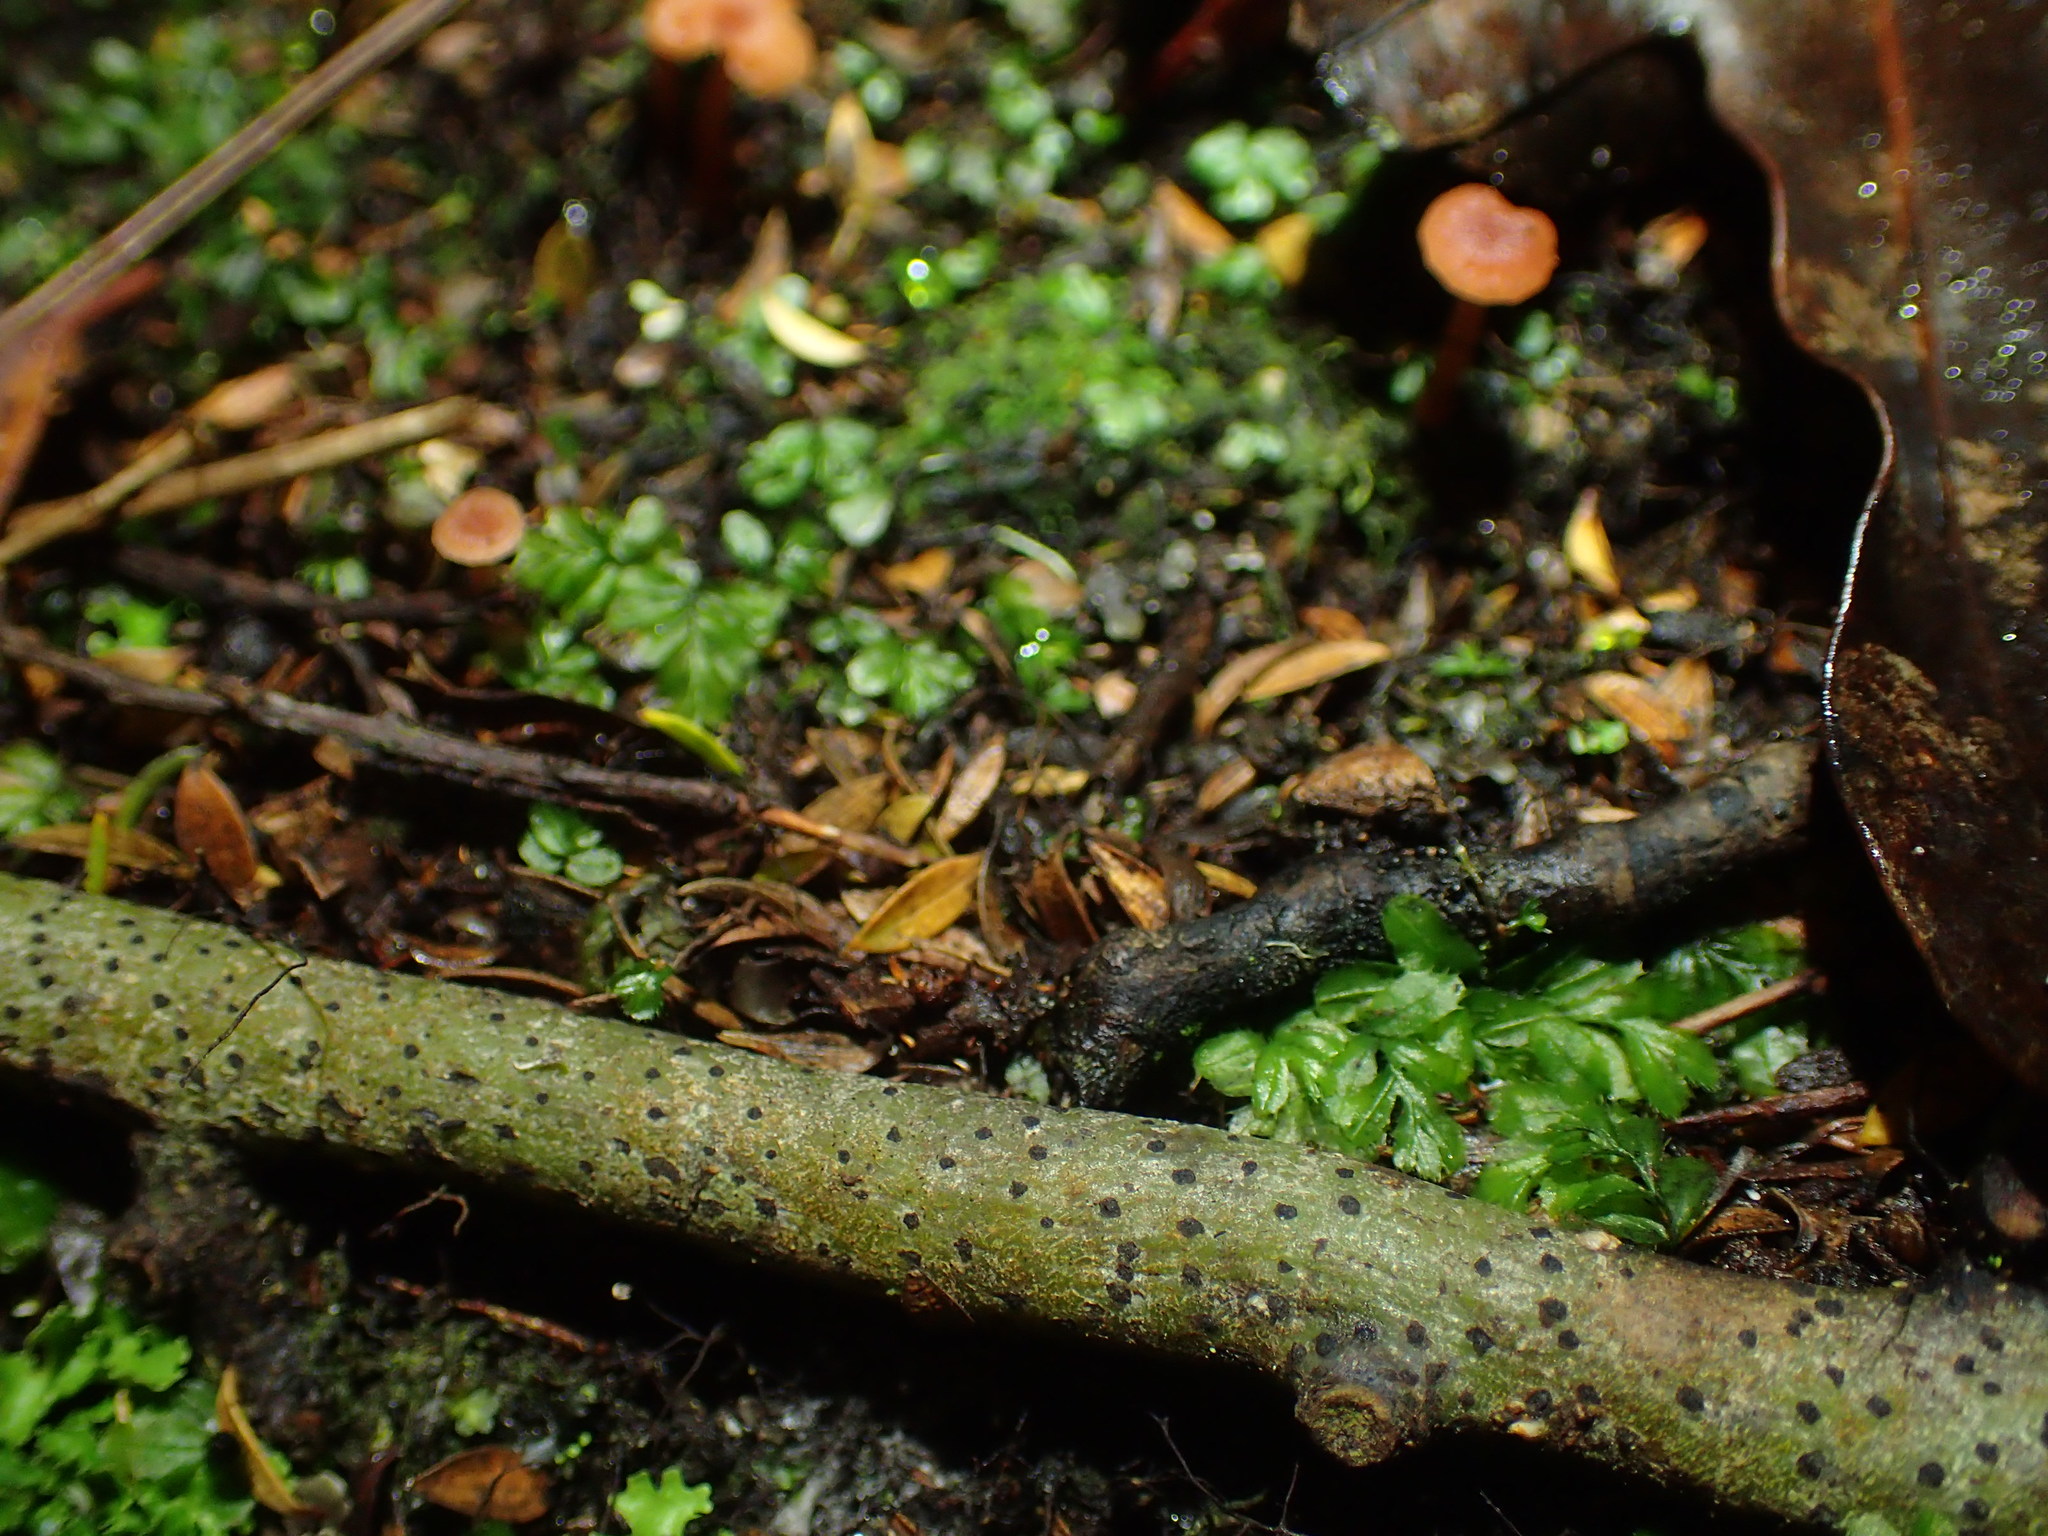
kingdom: Plantae
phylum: Tracheophyta
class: Polypodiopsida
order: Hymenophyllales
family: Hymenophyllaceae
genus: Hymenophyllum
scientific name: Hymenophyllum minimum
